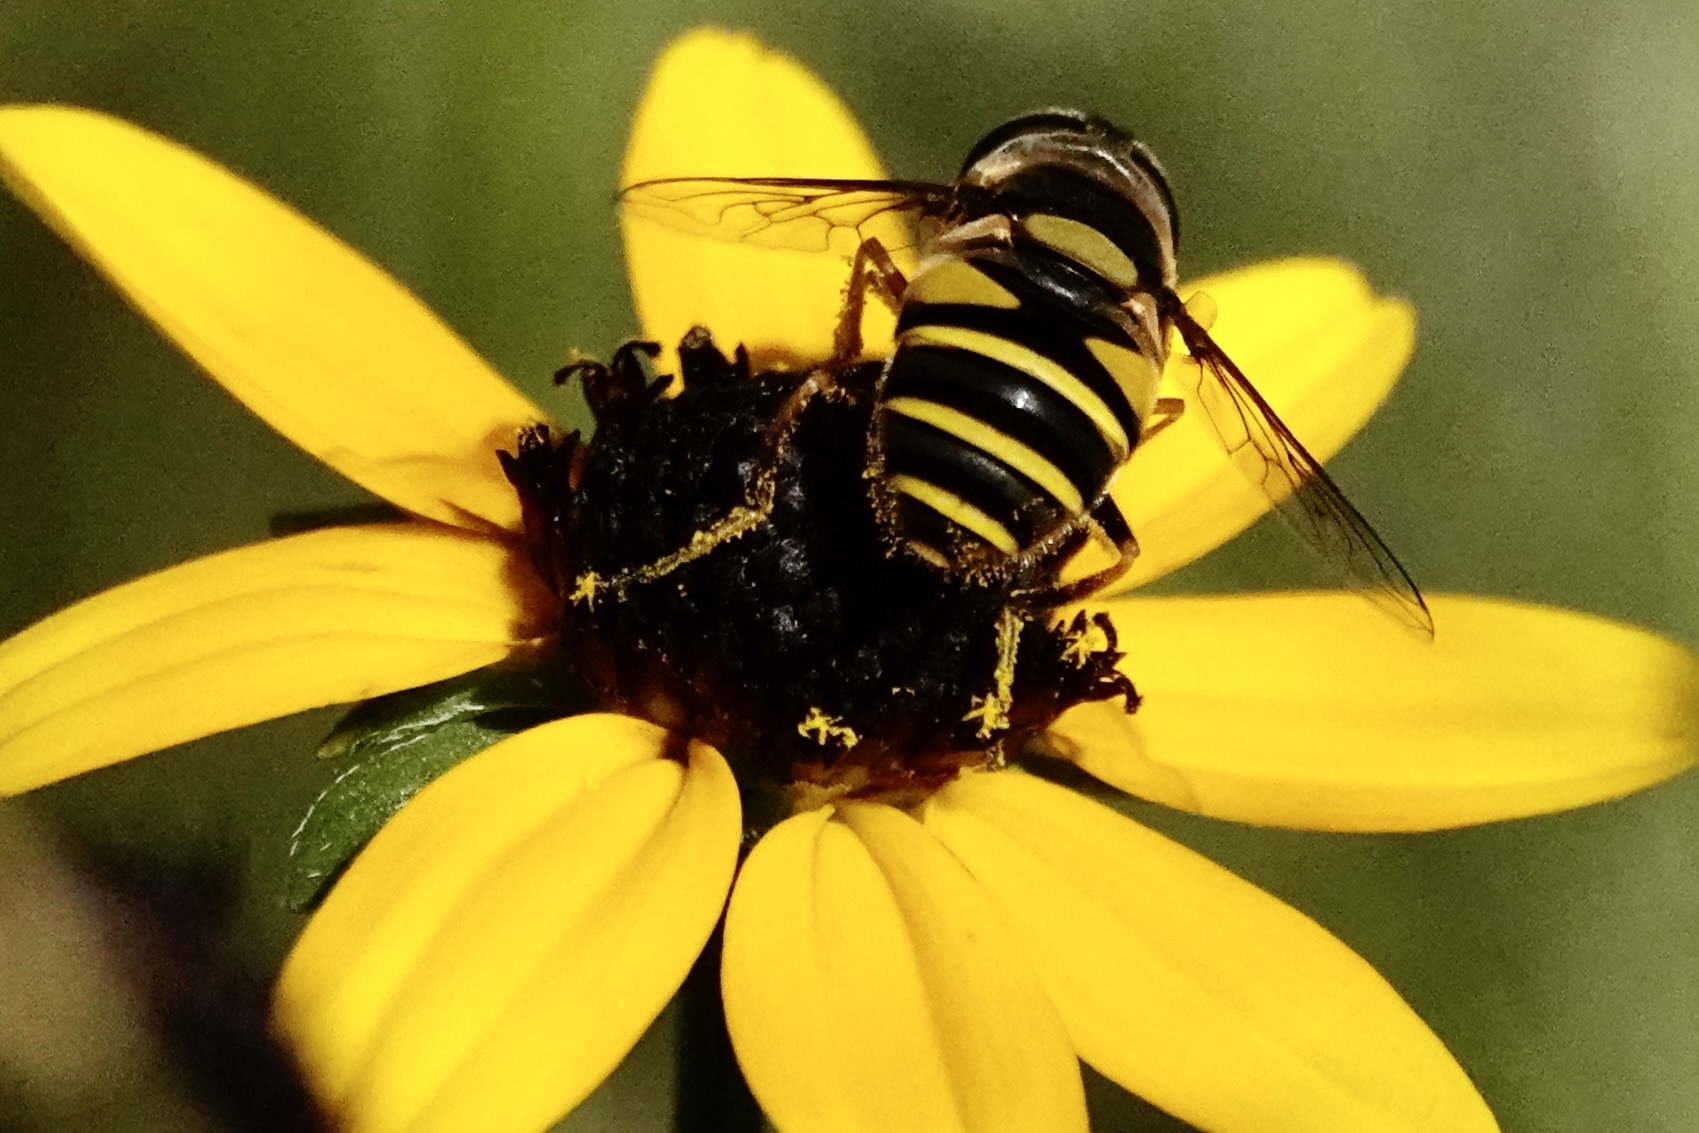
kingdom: Animalia
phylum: Arthropoda
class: Insecta
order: Diptera
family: Syrphidae
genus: Eristalis
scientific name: Eristalis transversa
